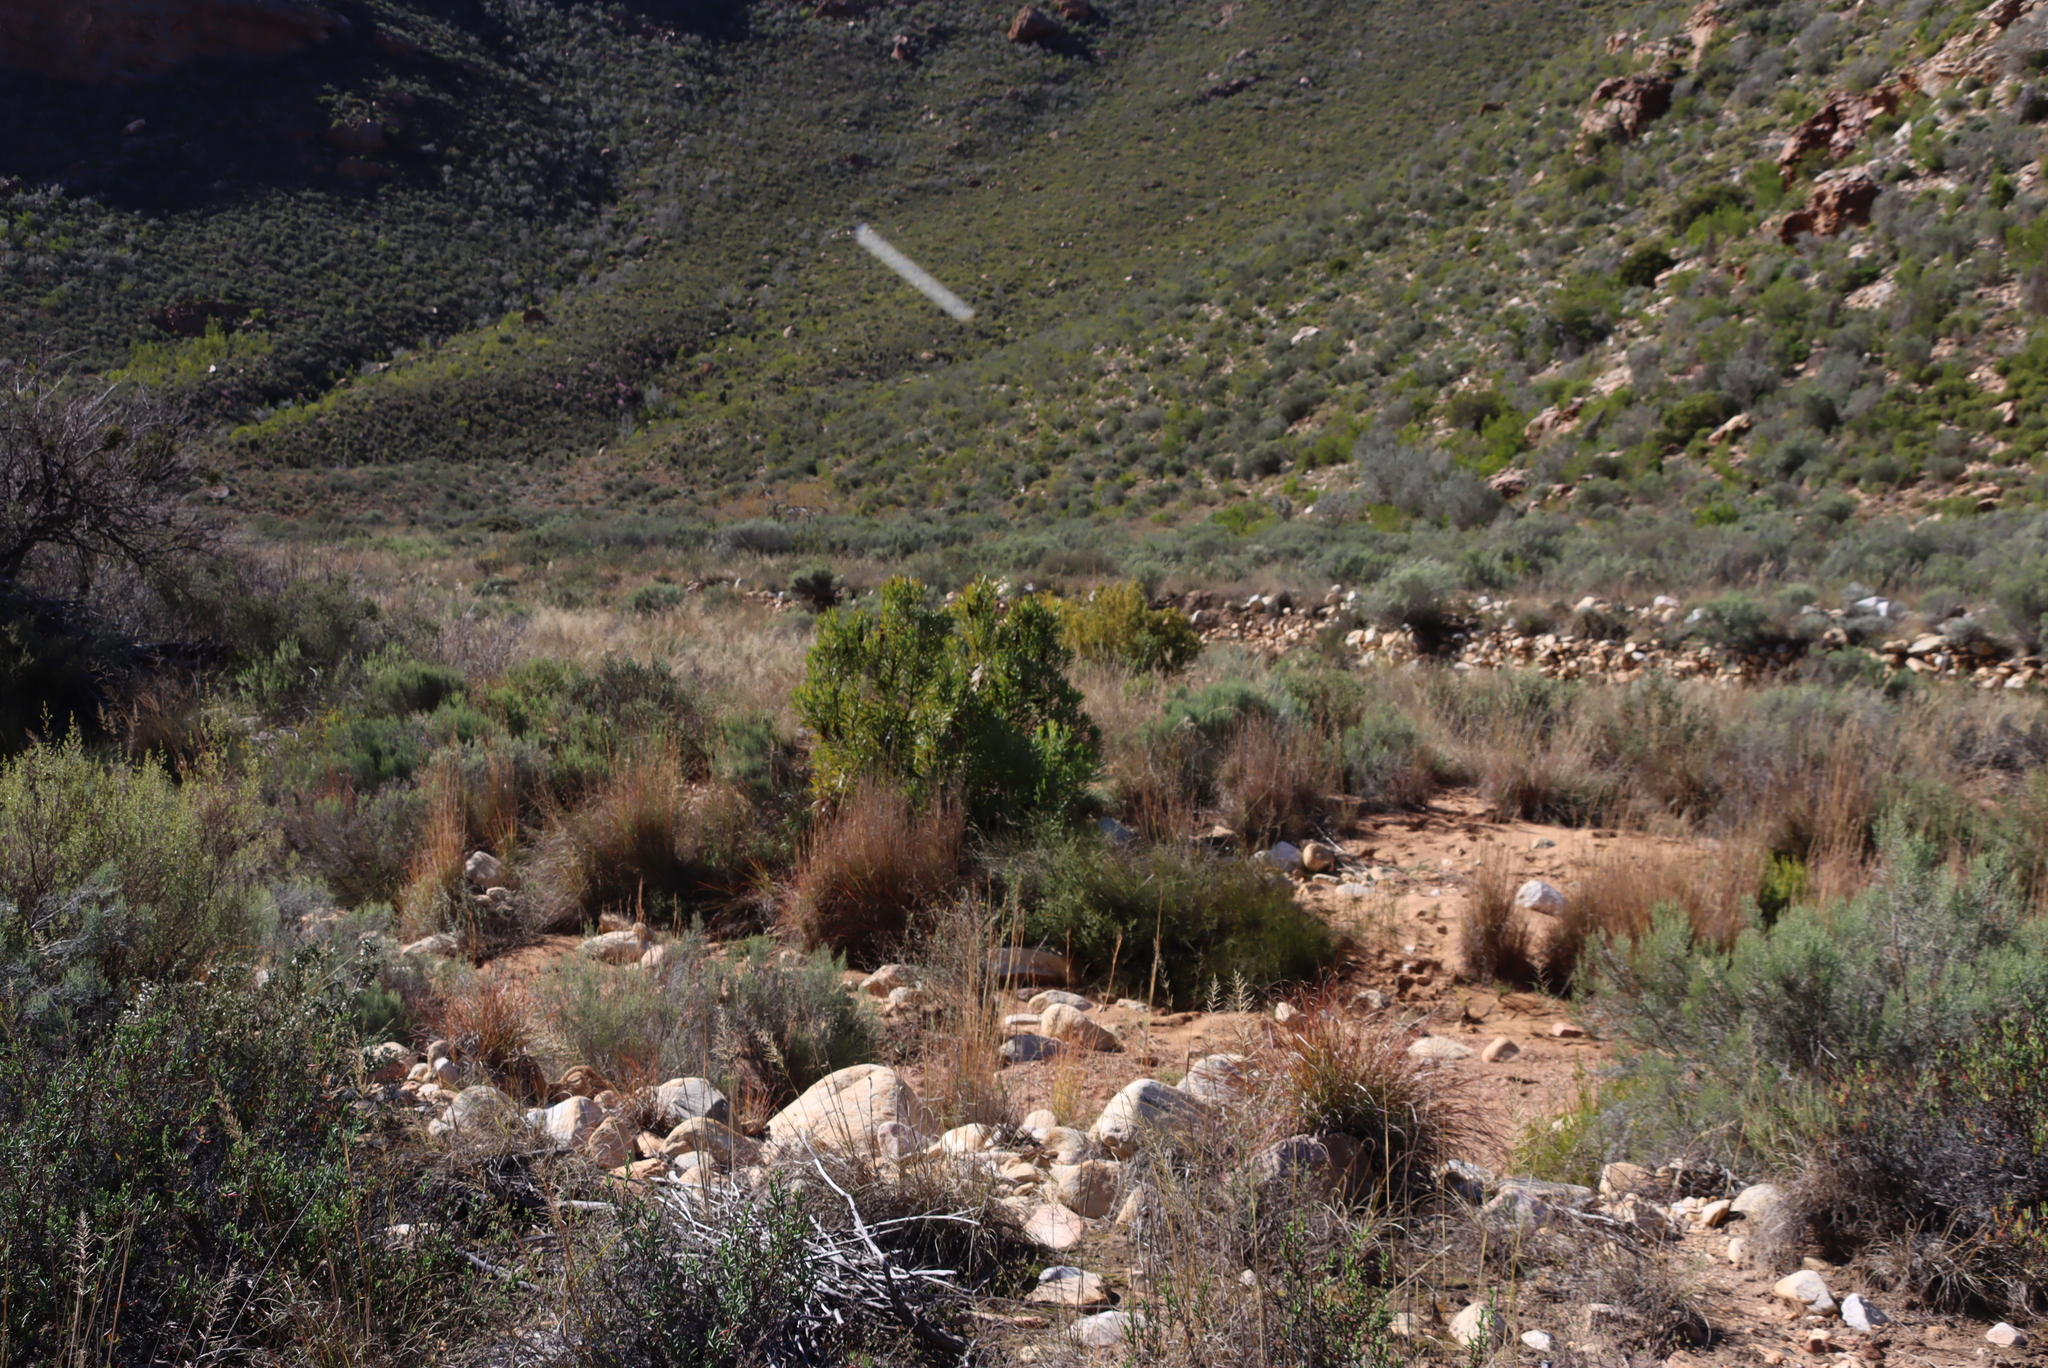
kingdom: Plantae
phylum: Tracheophyta
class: Magnoliopsida
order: Proteales
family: Proteaceae
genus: Protea
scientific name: Protea repens
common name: Sugarbush
